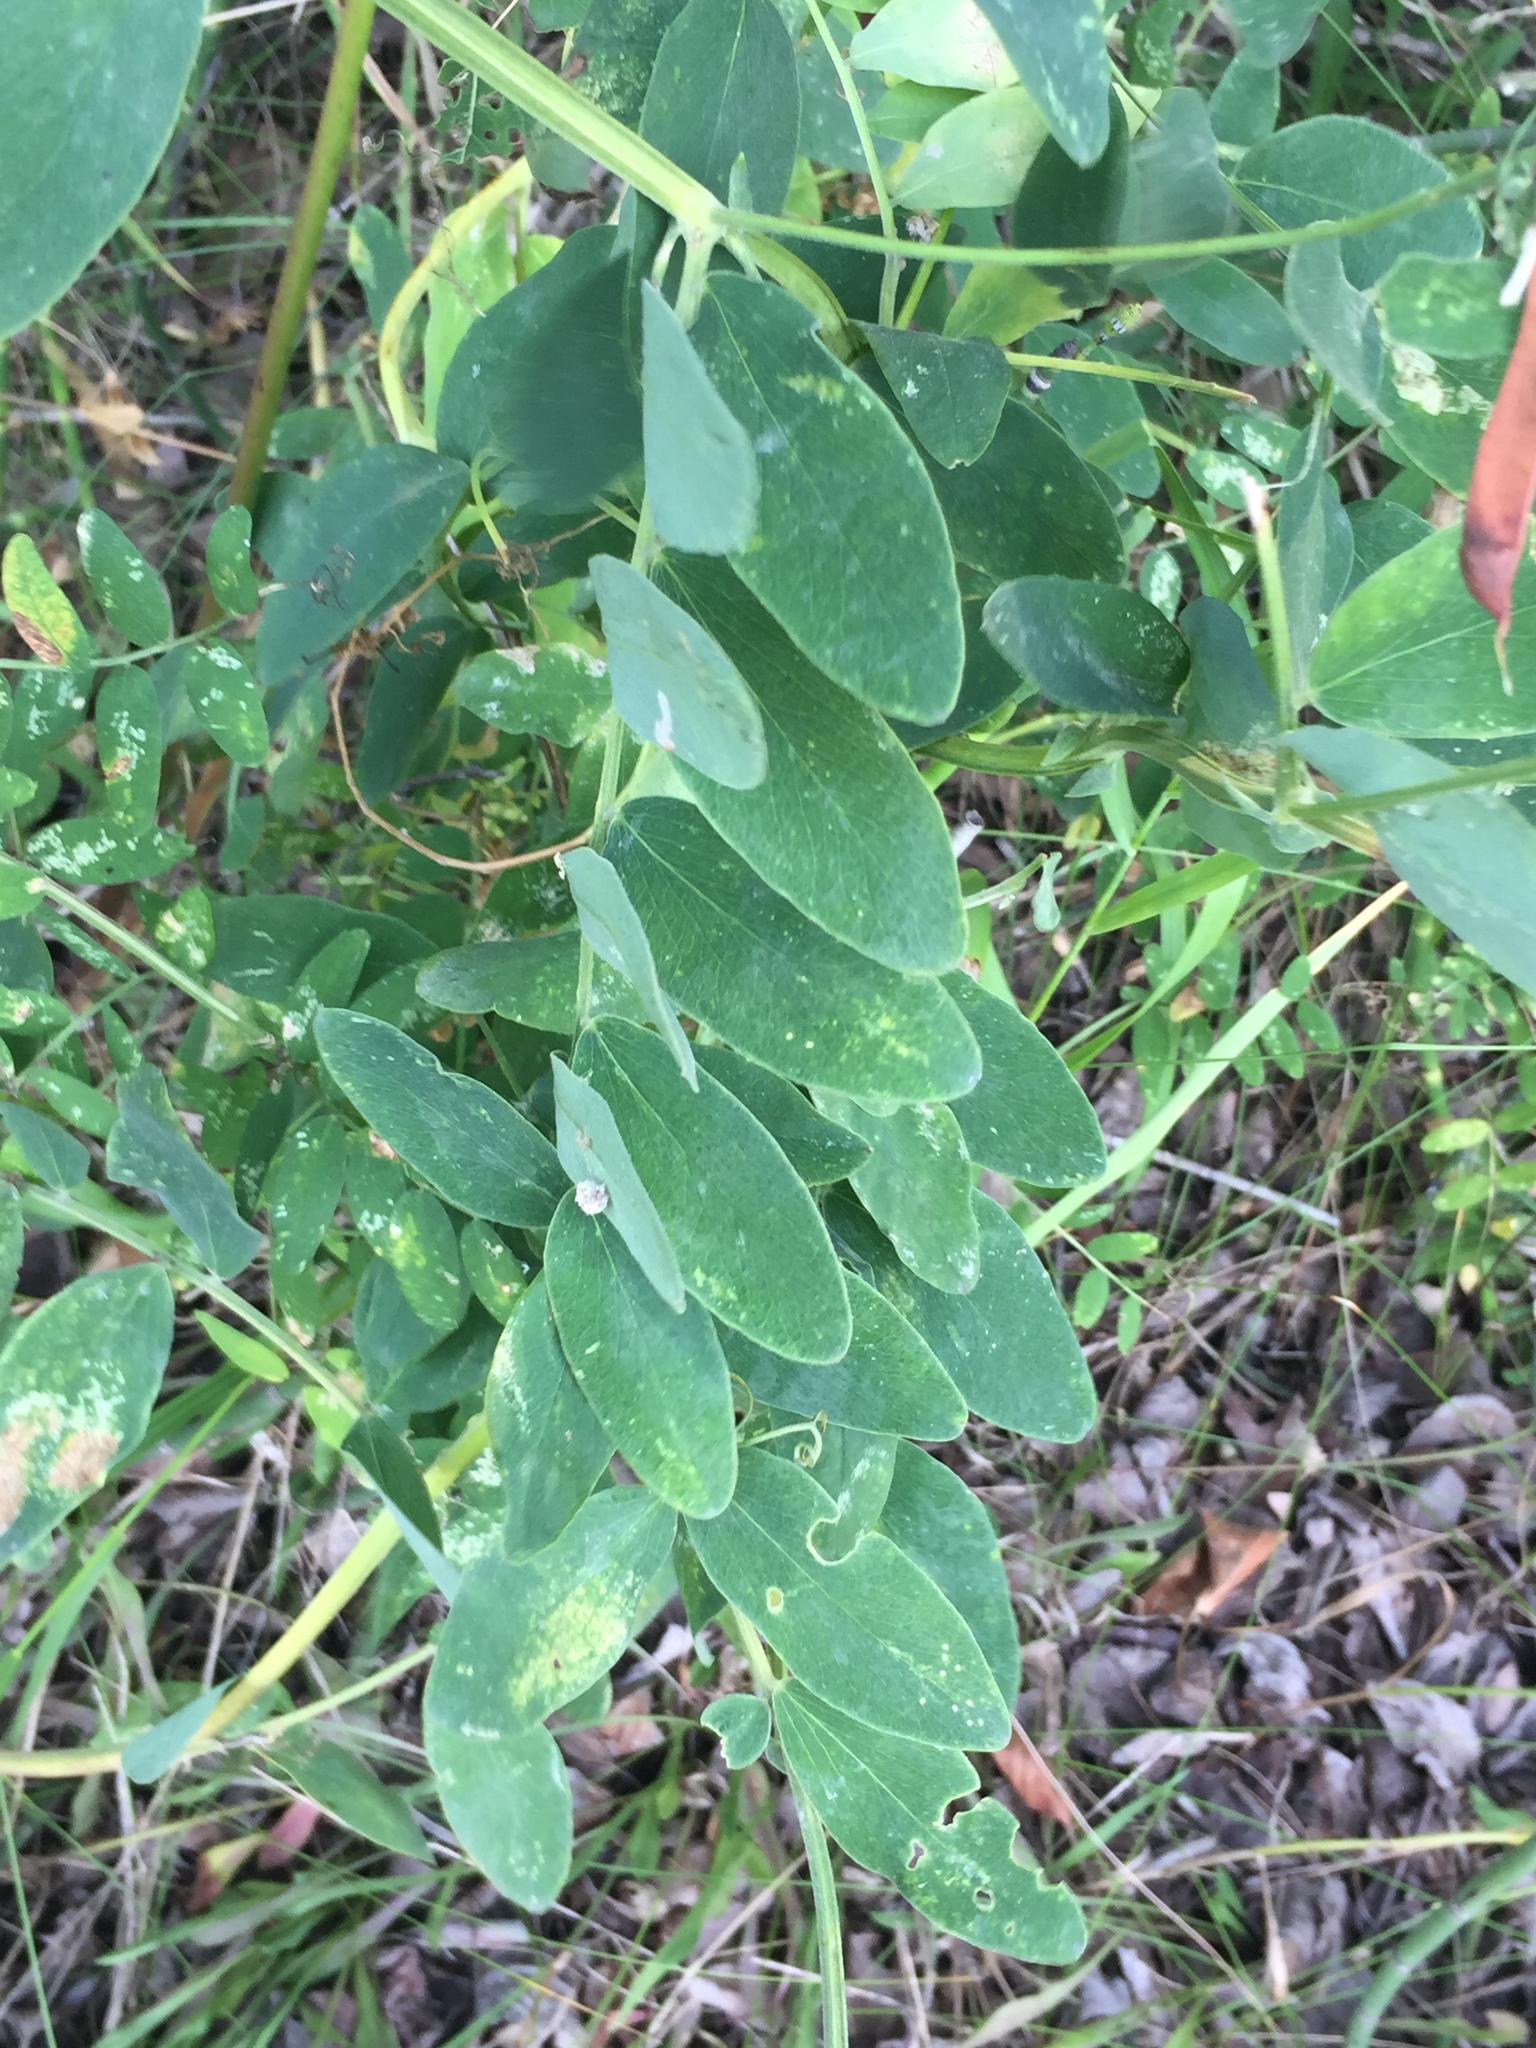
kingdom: Plantae
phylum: Tracheophyta
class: Magnoliopsida
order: Fabales
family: Fabaceae
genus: Lathyrus
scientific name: Lathyrus ochroleucus
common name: Pale vetchling
